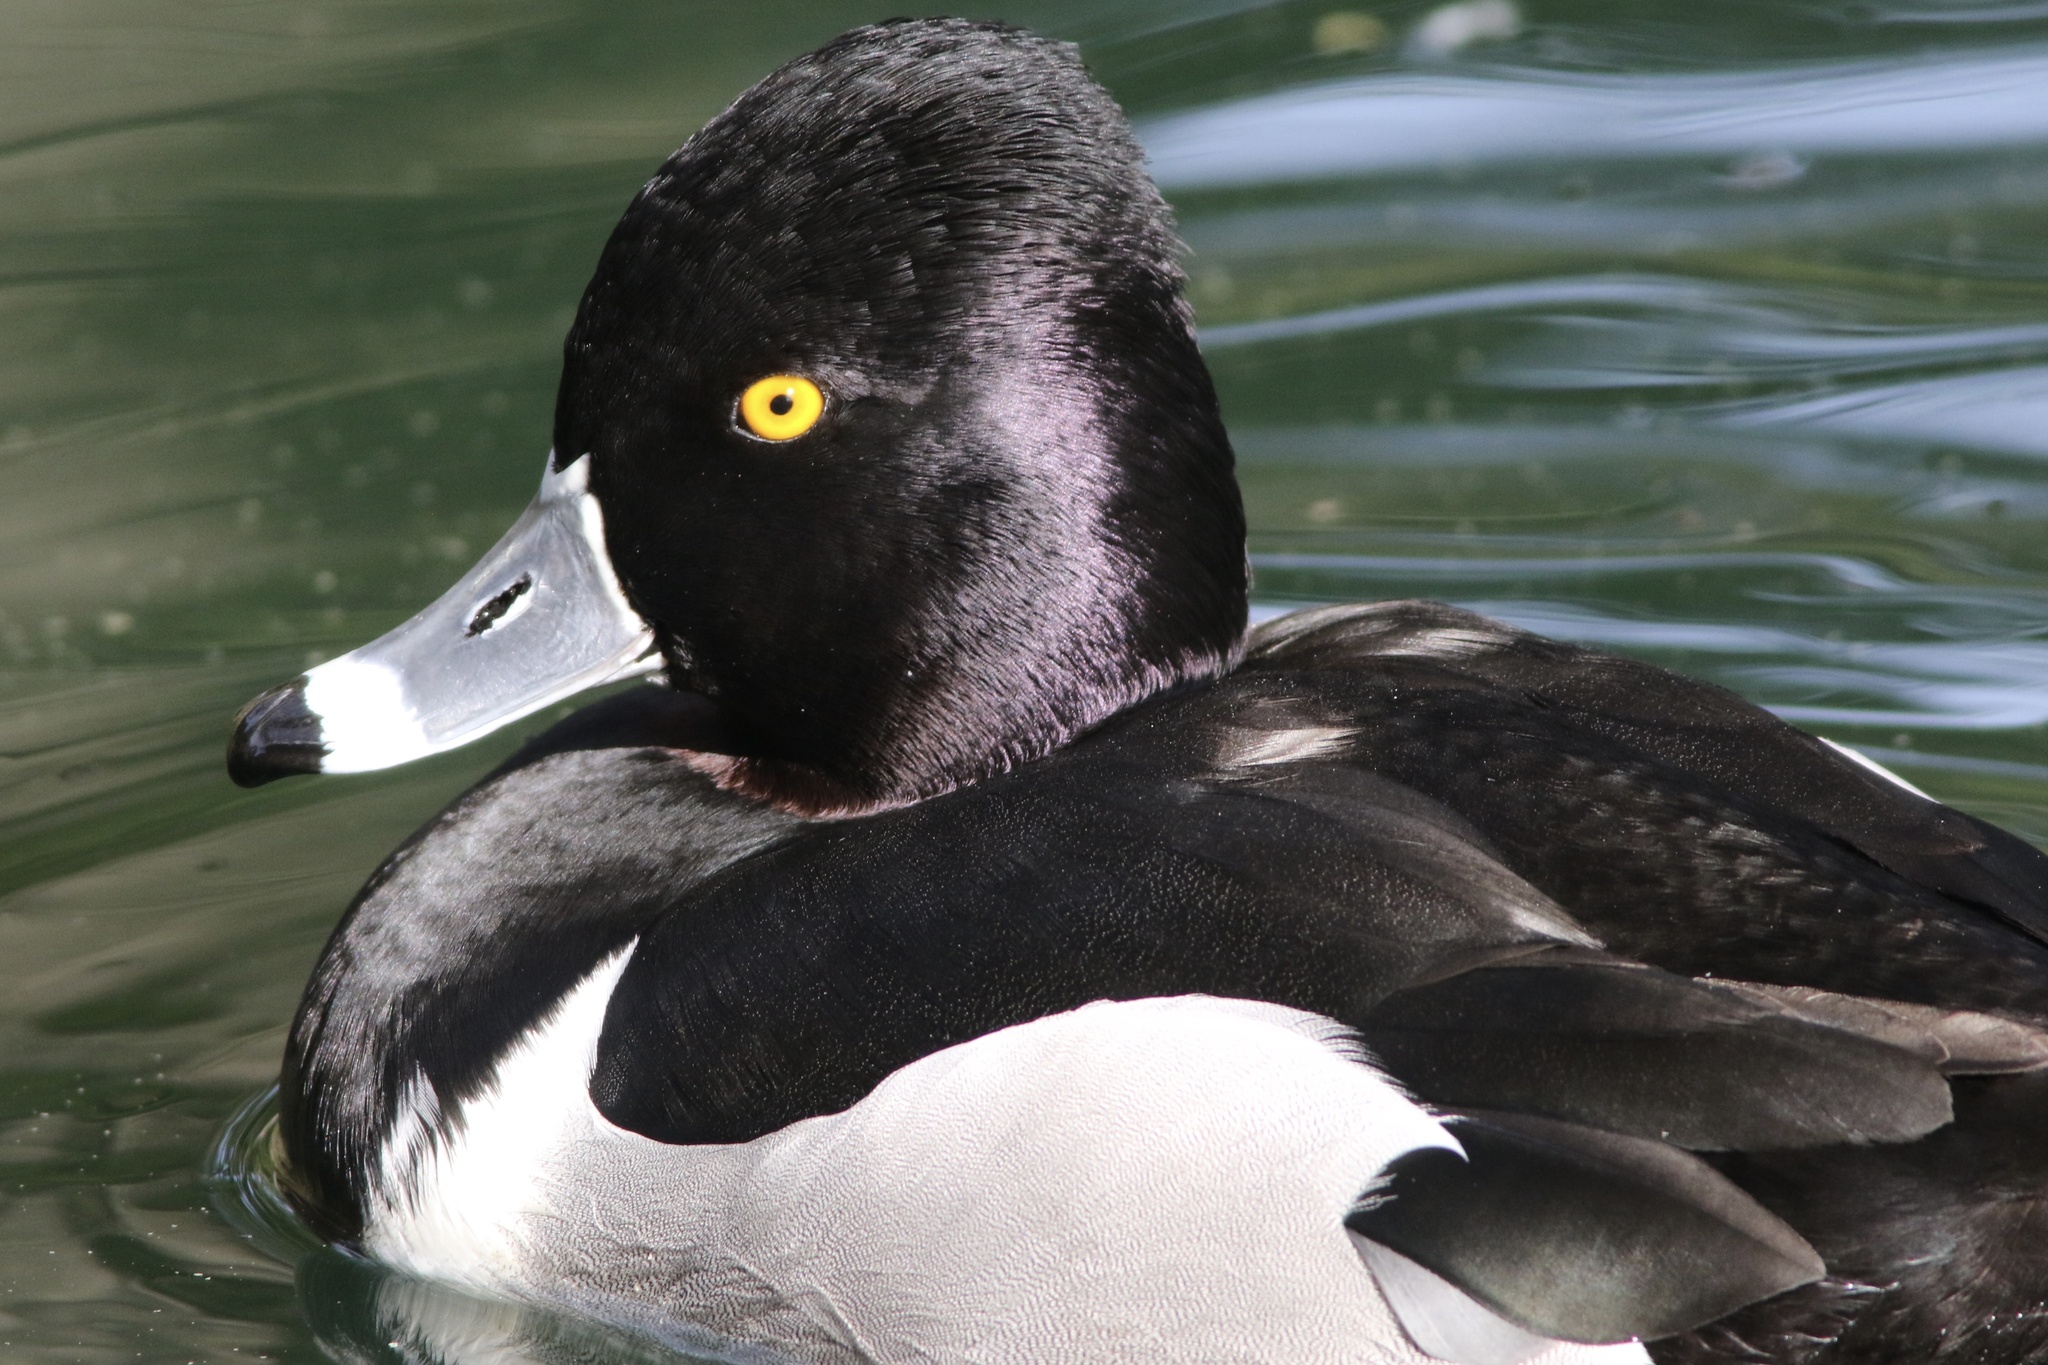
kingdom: Animalia
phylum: Chordata
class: Aves
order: Anseriformes
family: Anatidae
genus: Aythya
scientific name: Aythya collaris
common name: Ring-necked duck
